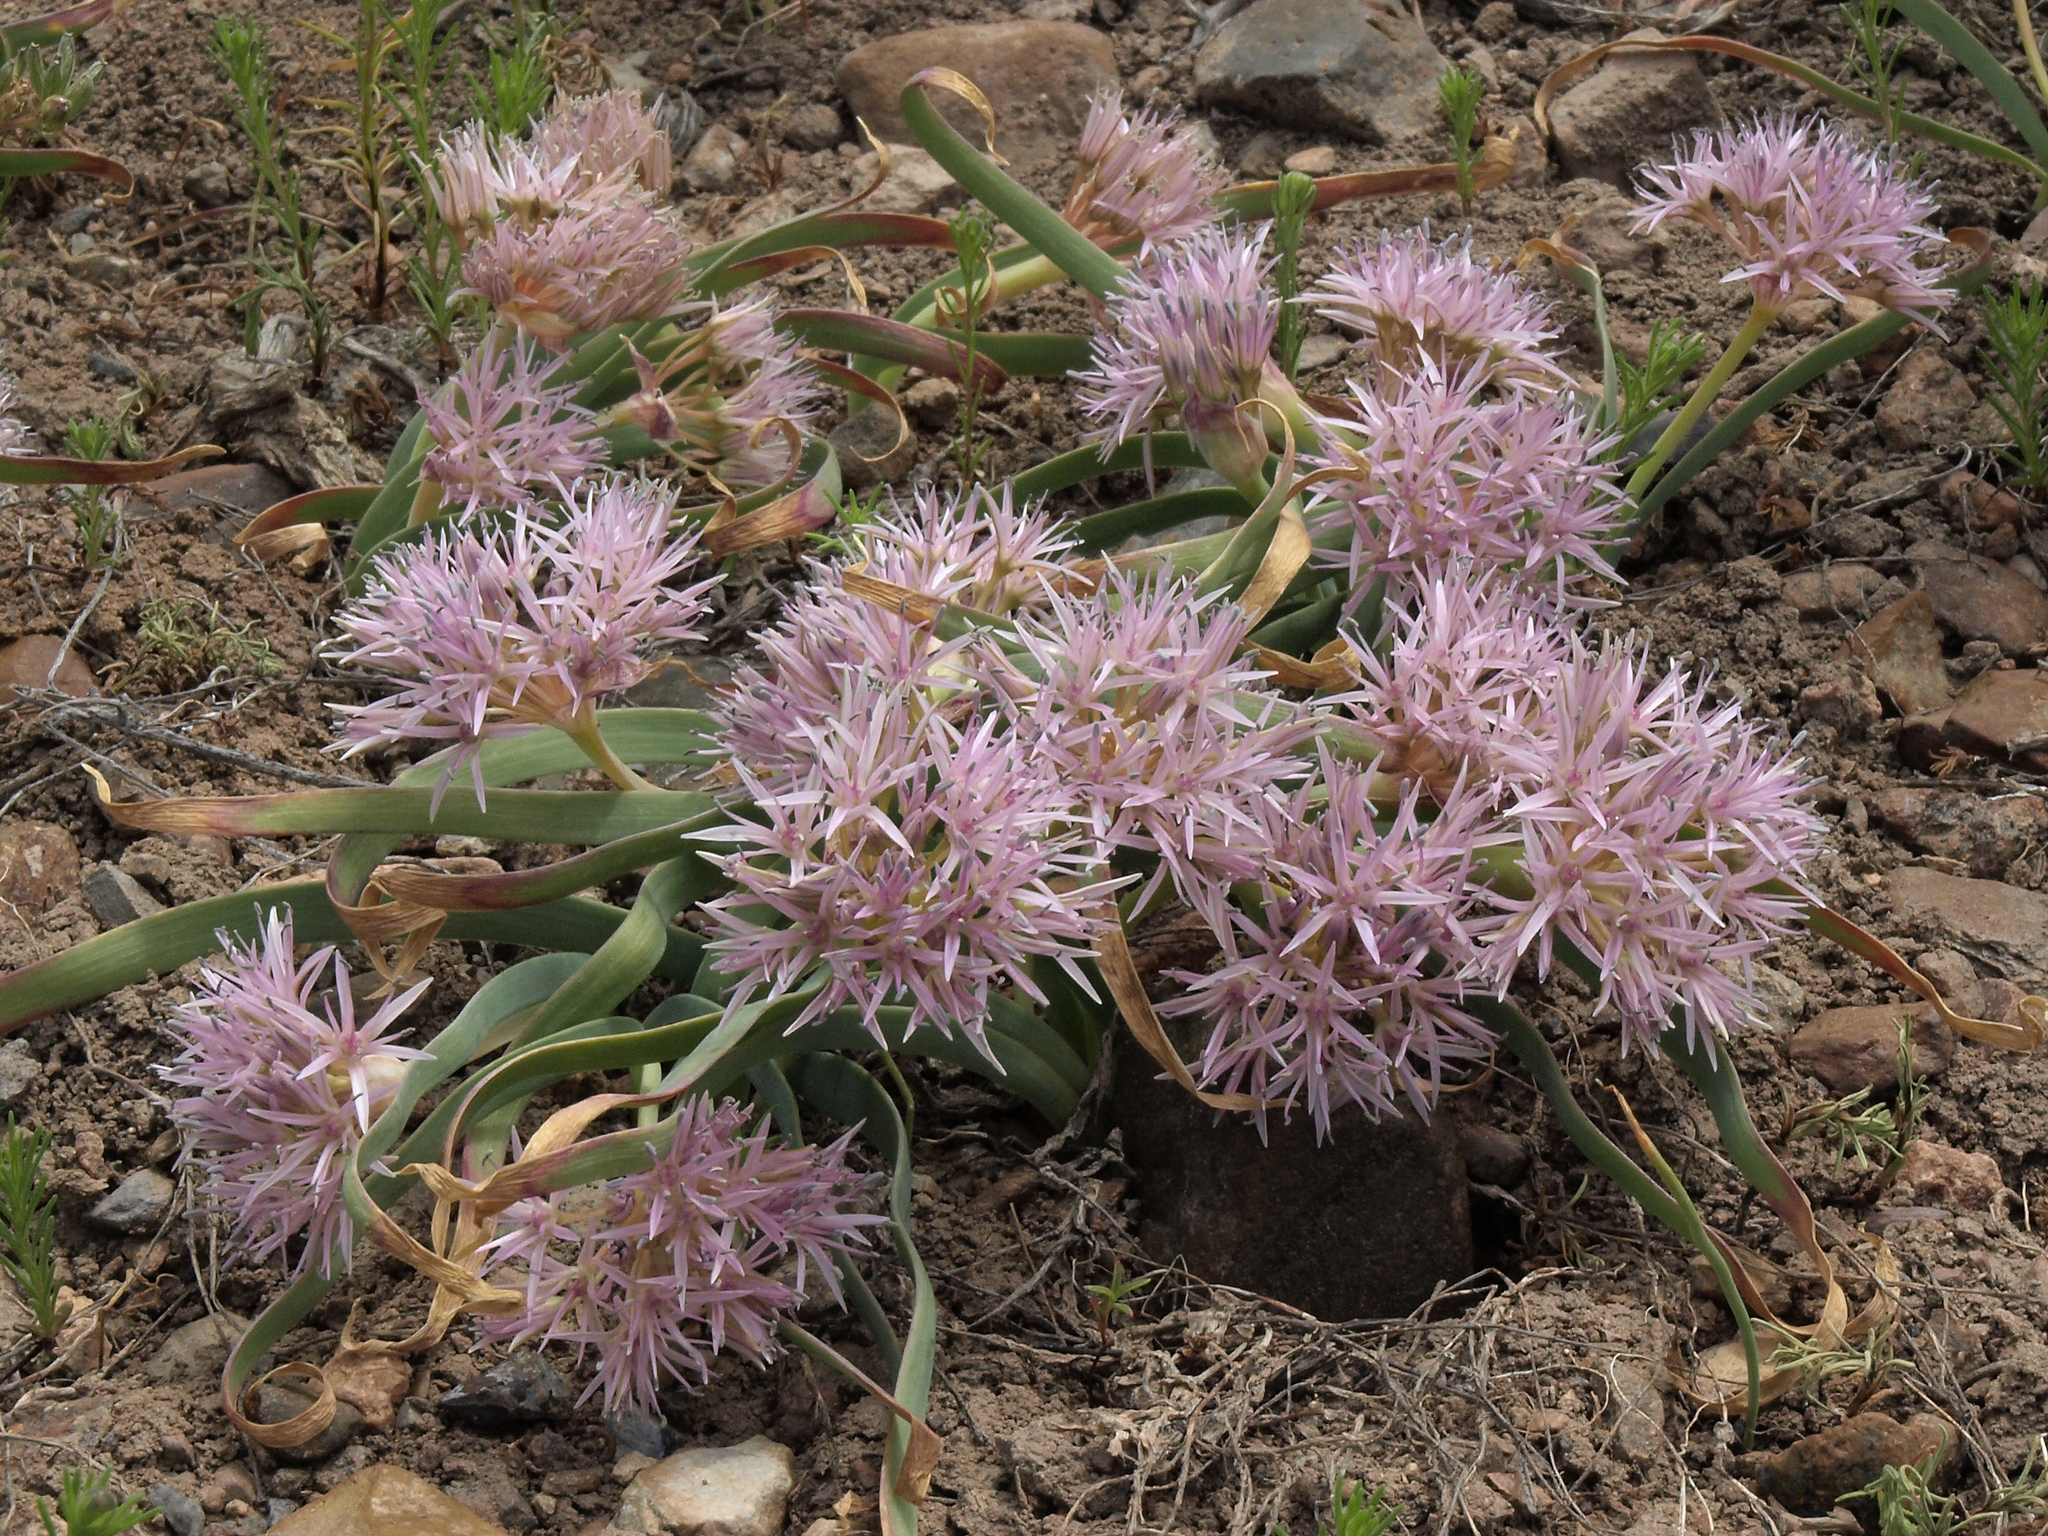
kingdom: Plantae
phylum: Tracheophyta
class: Liliopsida
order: Asparagales
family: Amaryllidaceae
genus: Allium
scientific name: Allium anceps
